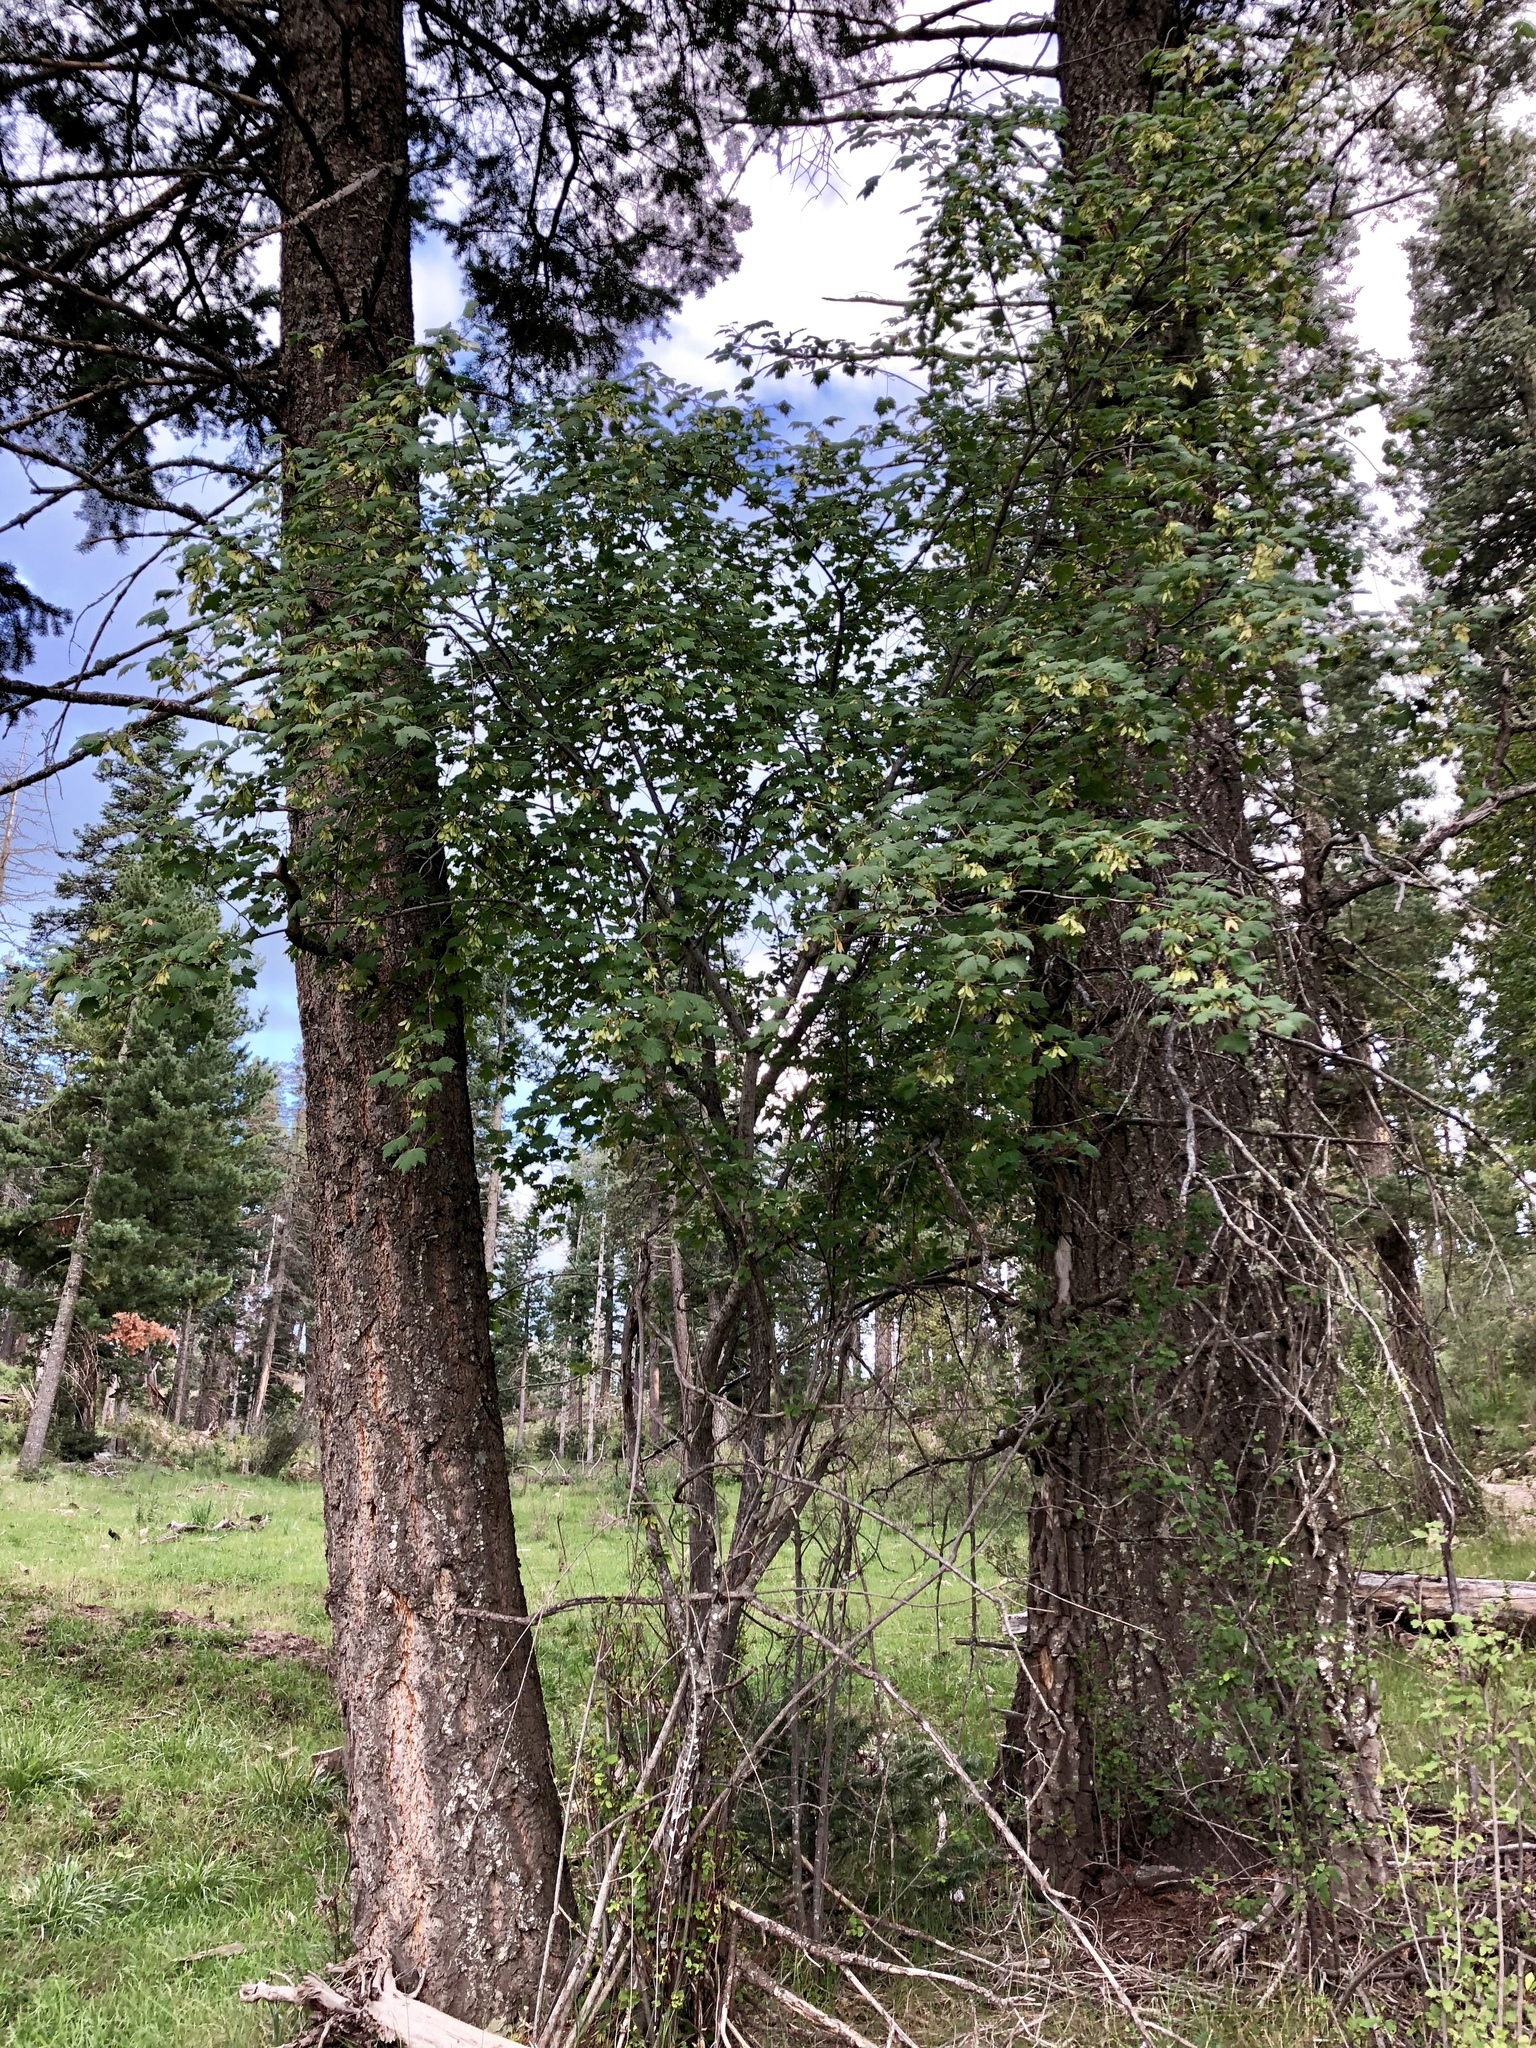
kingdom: Plantae
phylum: Tracheophyta
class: Magnoliopsida
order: Sapindales
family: Sapindaceae
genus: Acer
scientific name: Acer glabrum
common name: Rocky mountain maple
